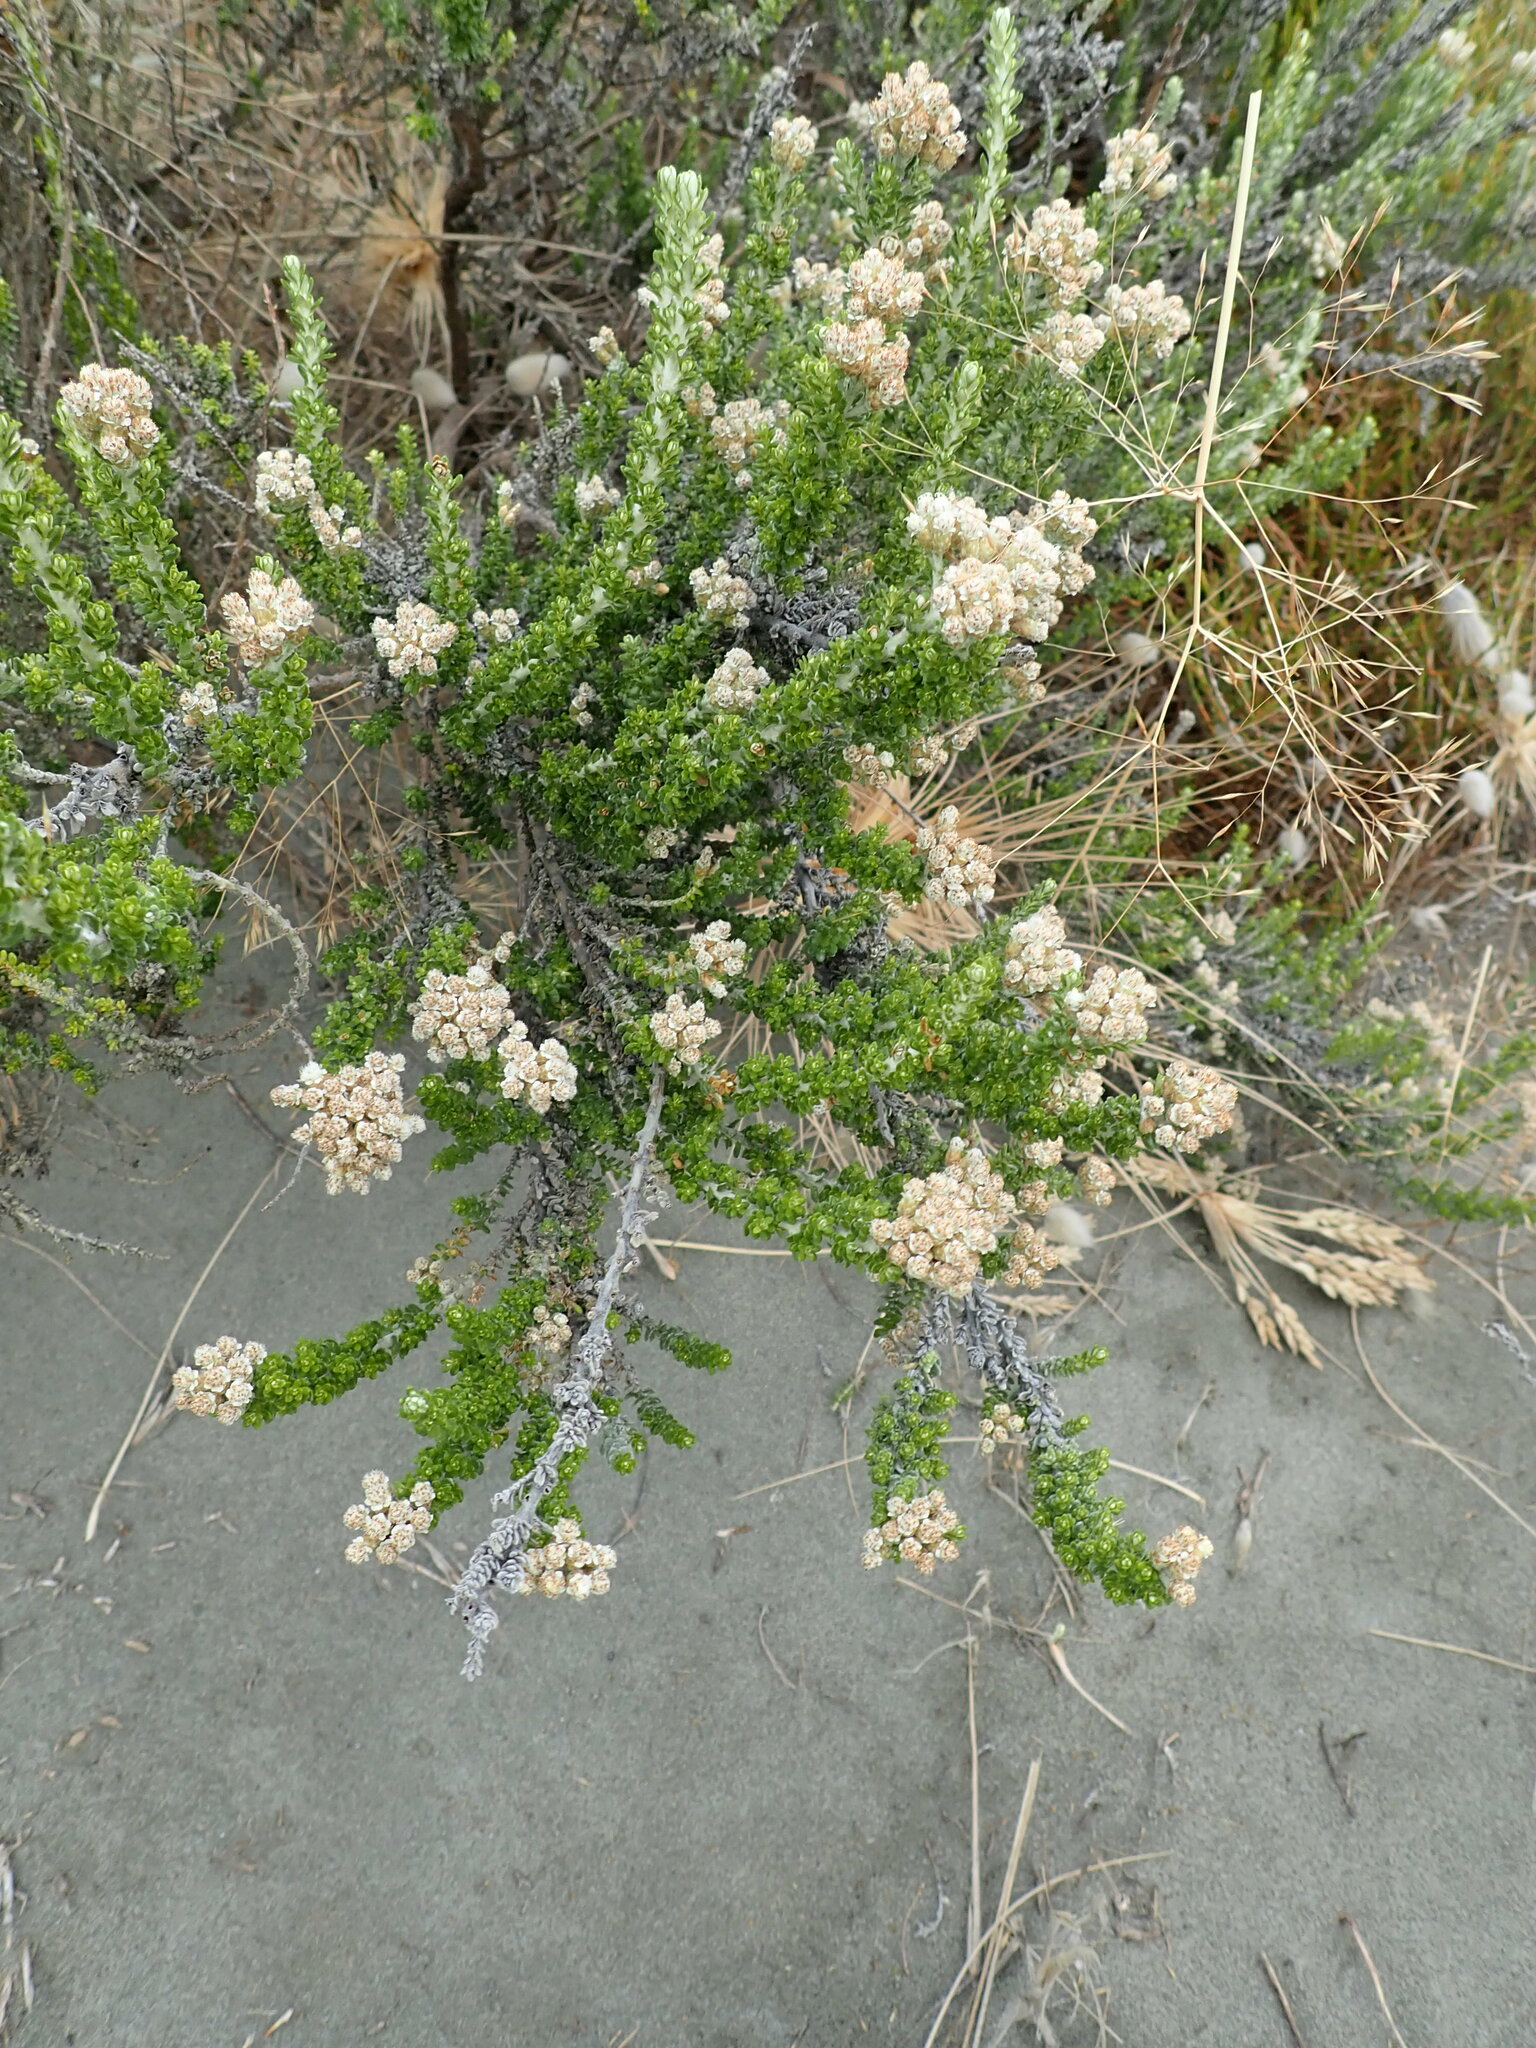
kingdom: Plantae
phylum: Tracheophyta
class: Magnoliopsida
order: Asterales
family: Asteraceae
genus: Ozothamnus
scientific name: Ozothamnus leptophyllus
